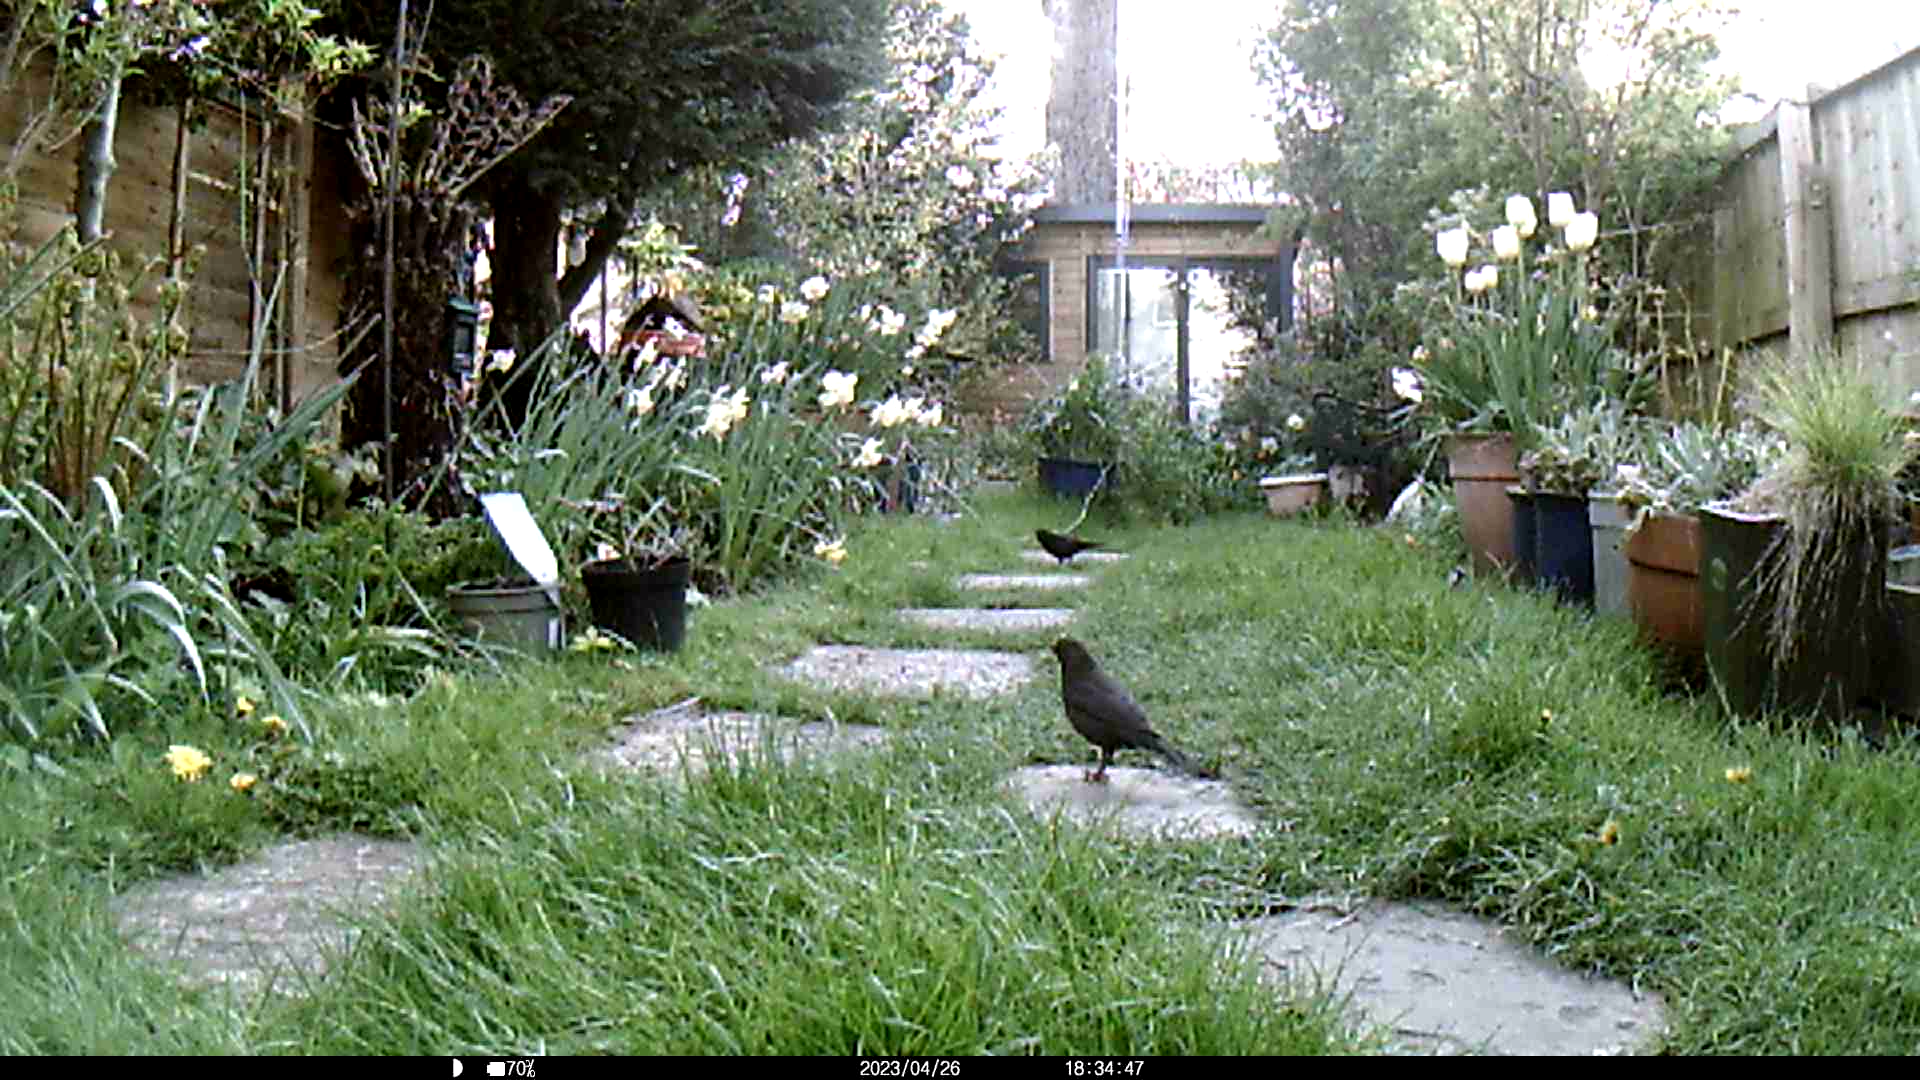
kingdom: Animalia
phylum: Chordata
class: Aves
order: Passeriformes
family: Turdidae
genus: Turdus
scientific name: Turdus merula
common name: Common blackbird
